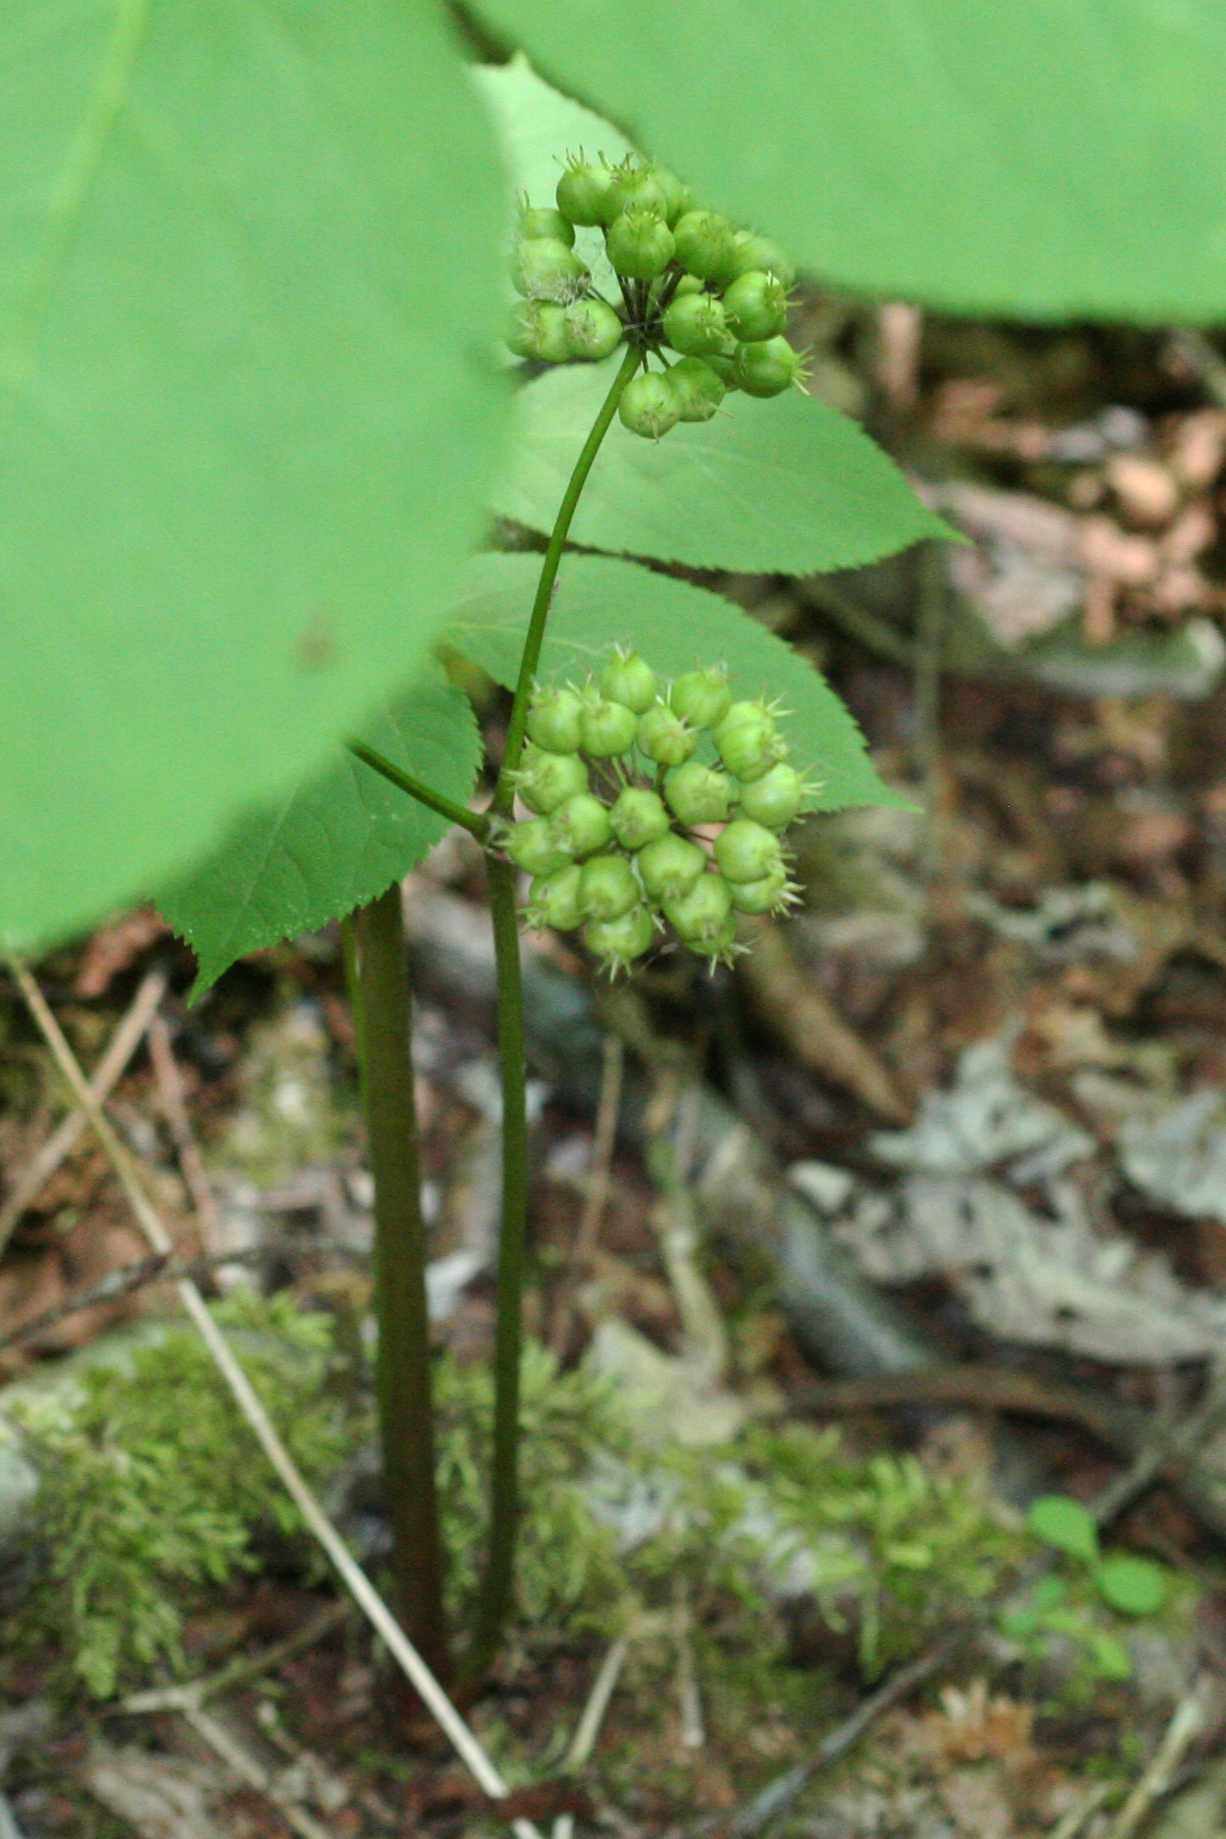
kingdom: Plantae
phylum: Tracheophyta
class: Magnoliopsida
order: Apiales
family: Araliaceae
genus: Aralia
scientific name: Aralia nudicaulis
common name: Wild sarsaparilla
